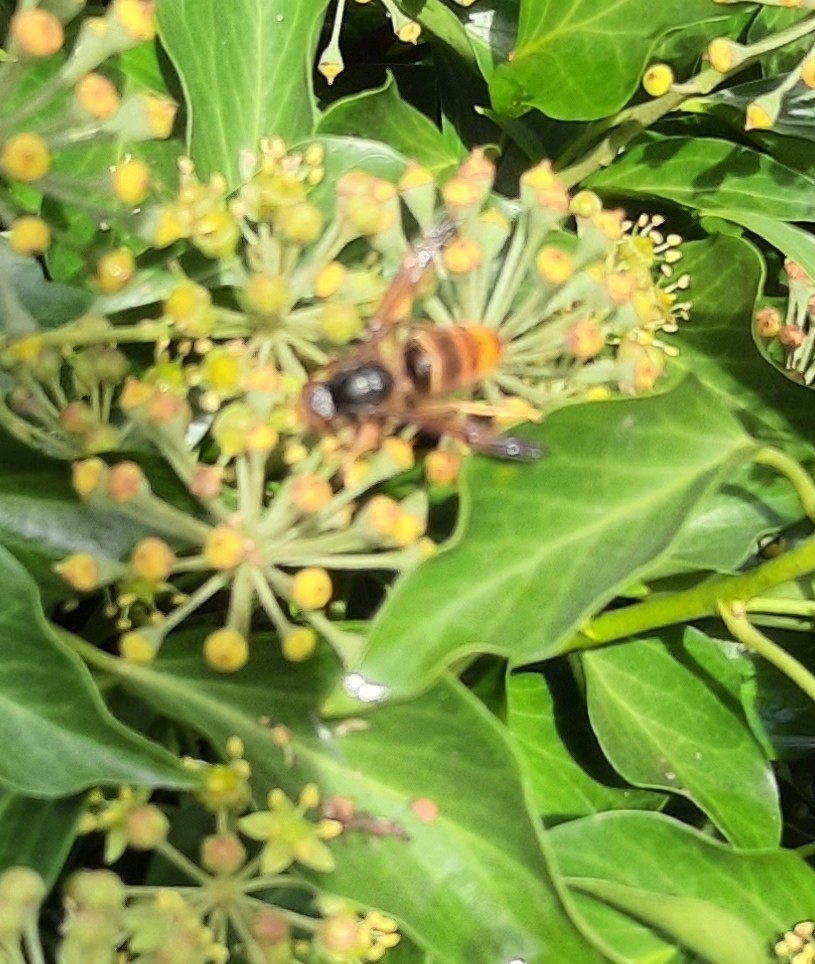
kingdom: Animalia
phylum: Arthropoda
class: Insecta
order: Hymenoptera
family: Vespidae
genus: Vespa
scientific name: Vespa velutina
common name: Asian hornet
